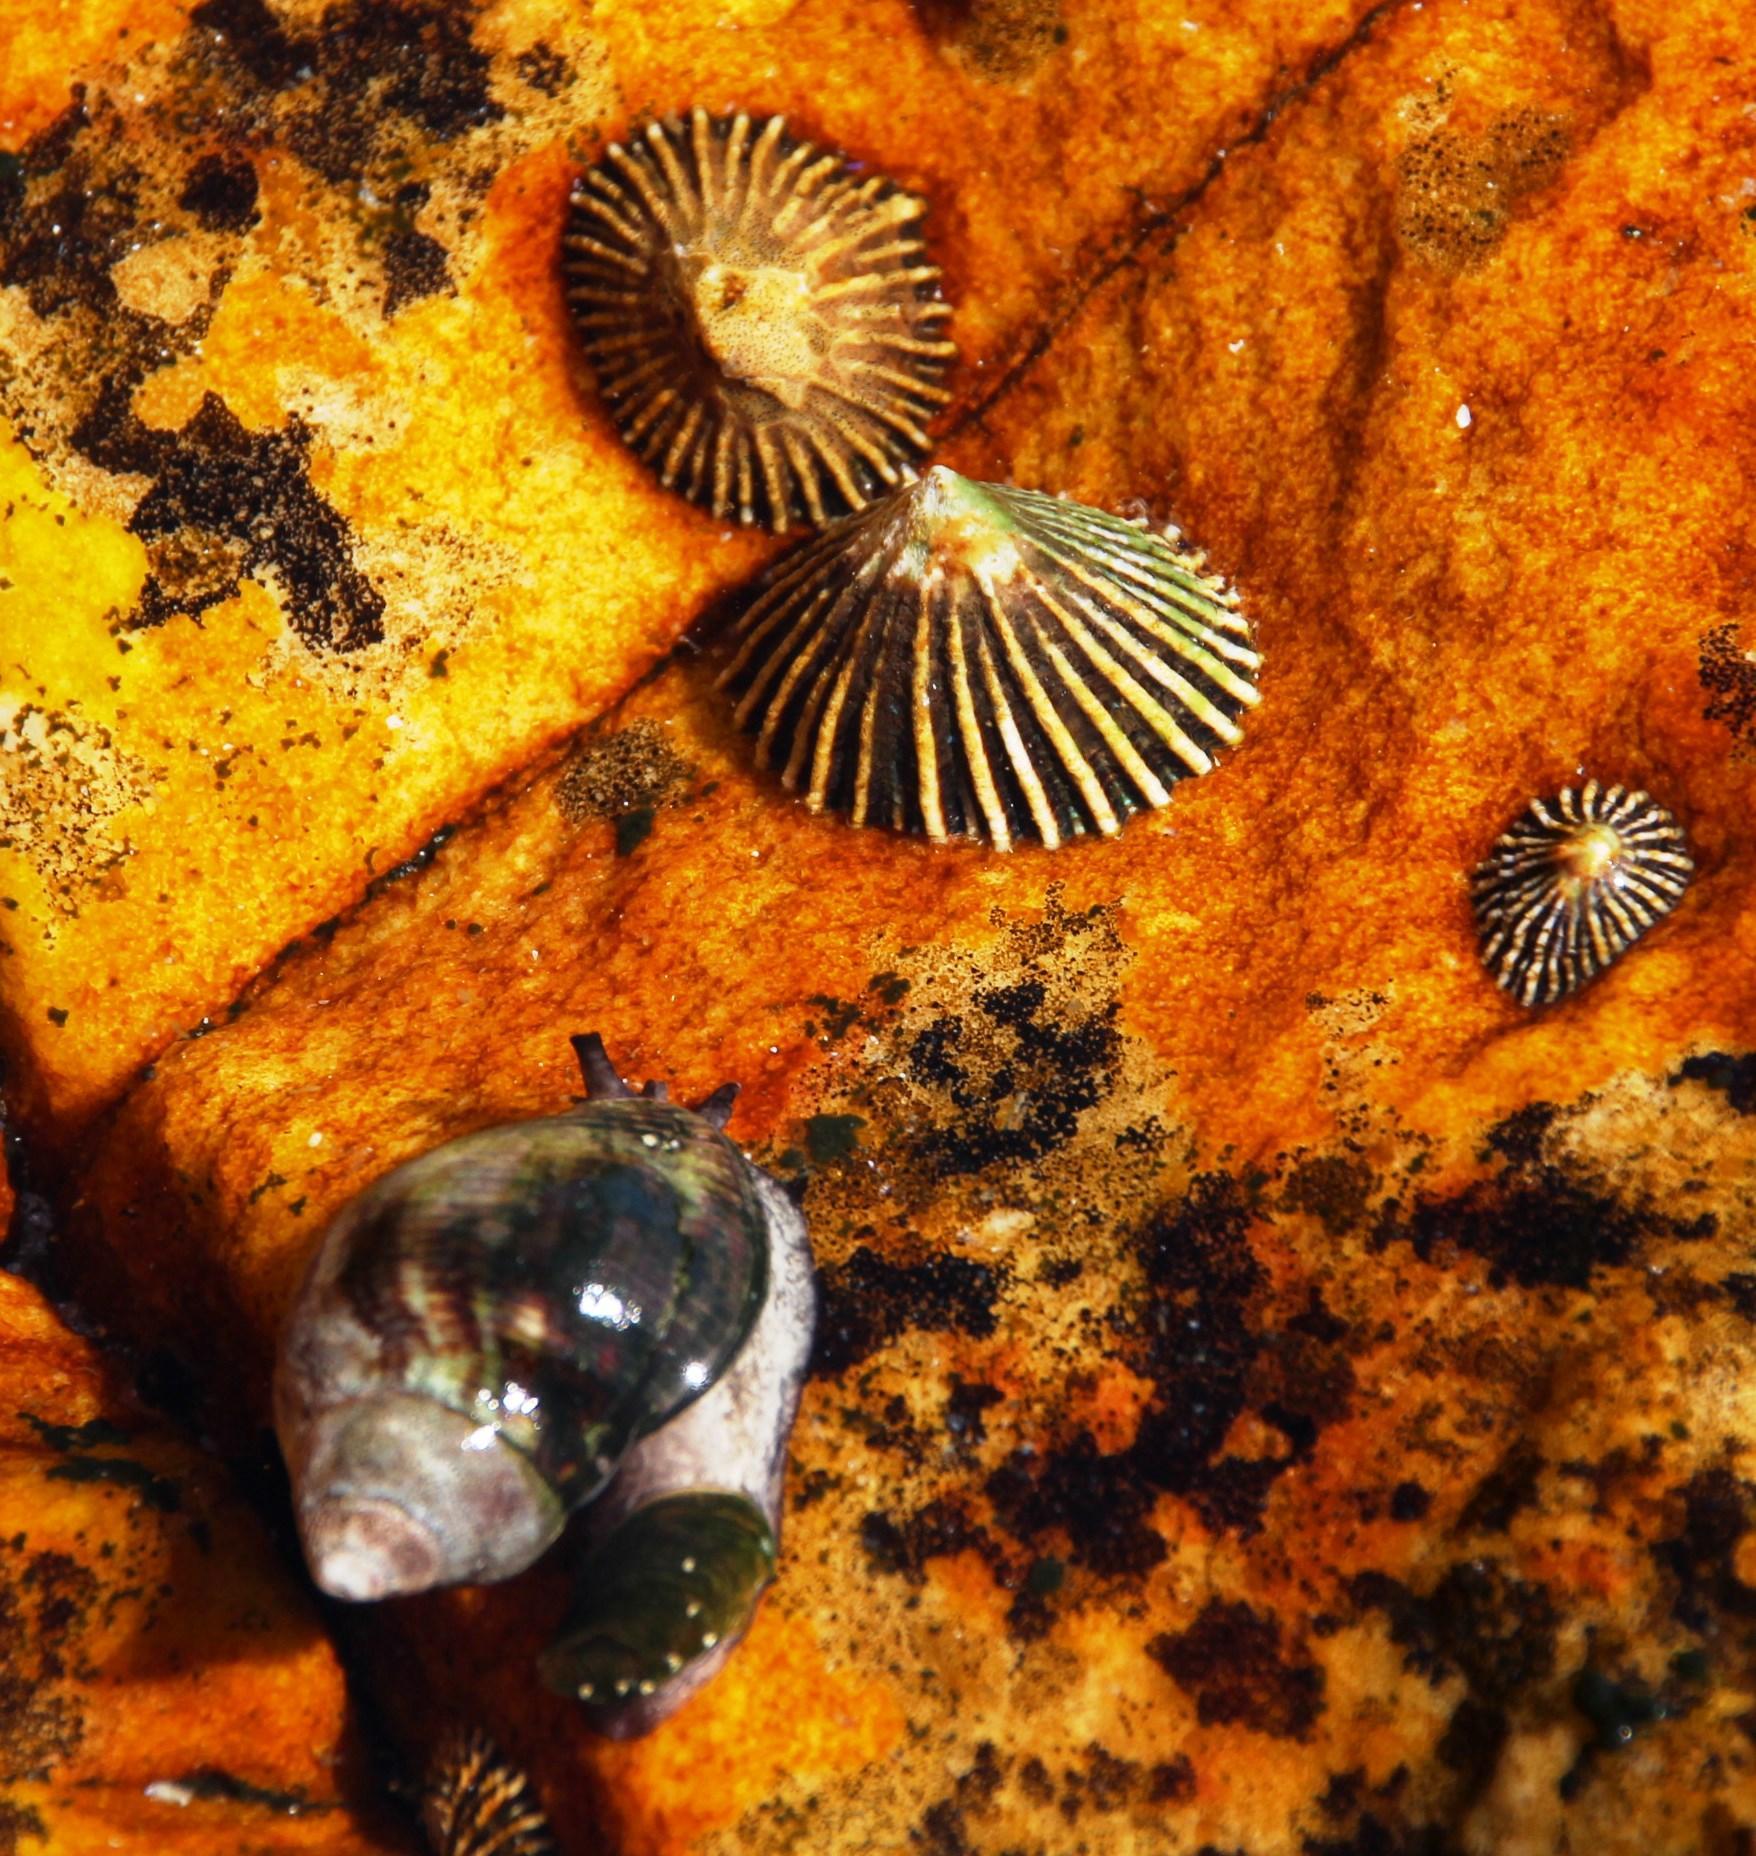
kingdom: Animalia
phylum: Mollusca
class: Gastropoda
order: Siphonariida
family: Siphonariidae
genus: Siphonaria
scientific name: Siphonaria concinna
